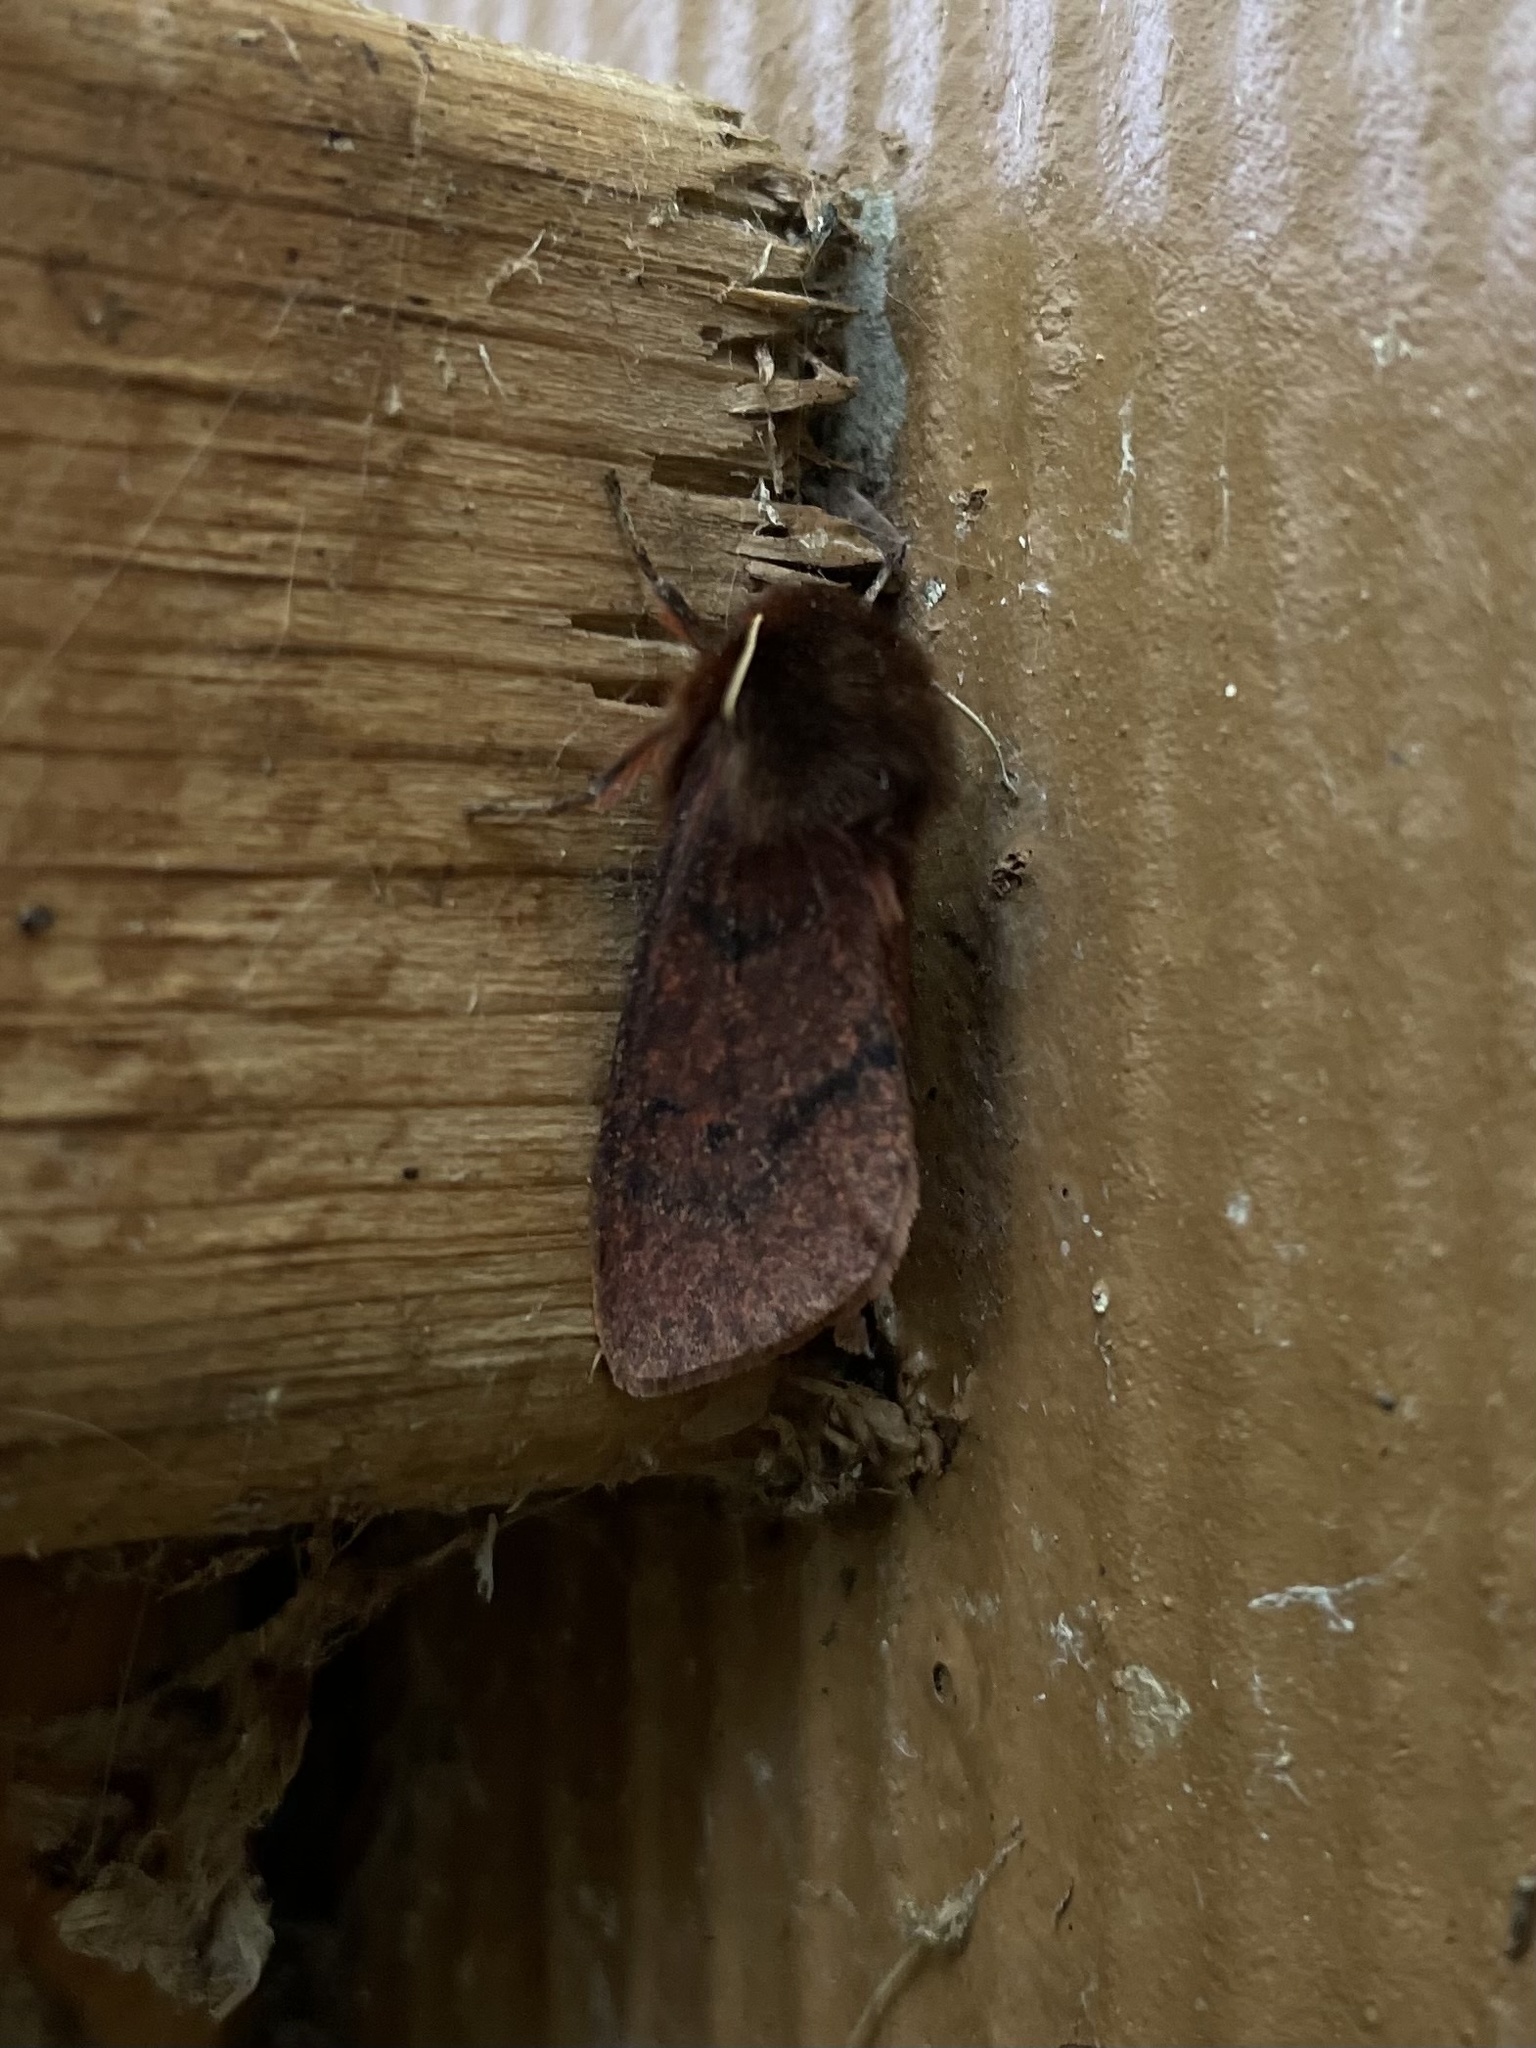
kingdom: Animalia
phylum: Arthropoda
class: Insecta
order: Lepidoptera
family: Erebidae
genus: Phragmatobia
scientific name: Phragmatobia assimilans
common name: Large ruby tiger moth
